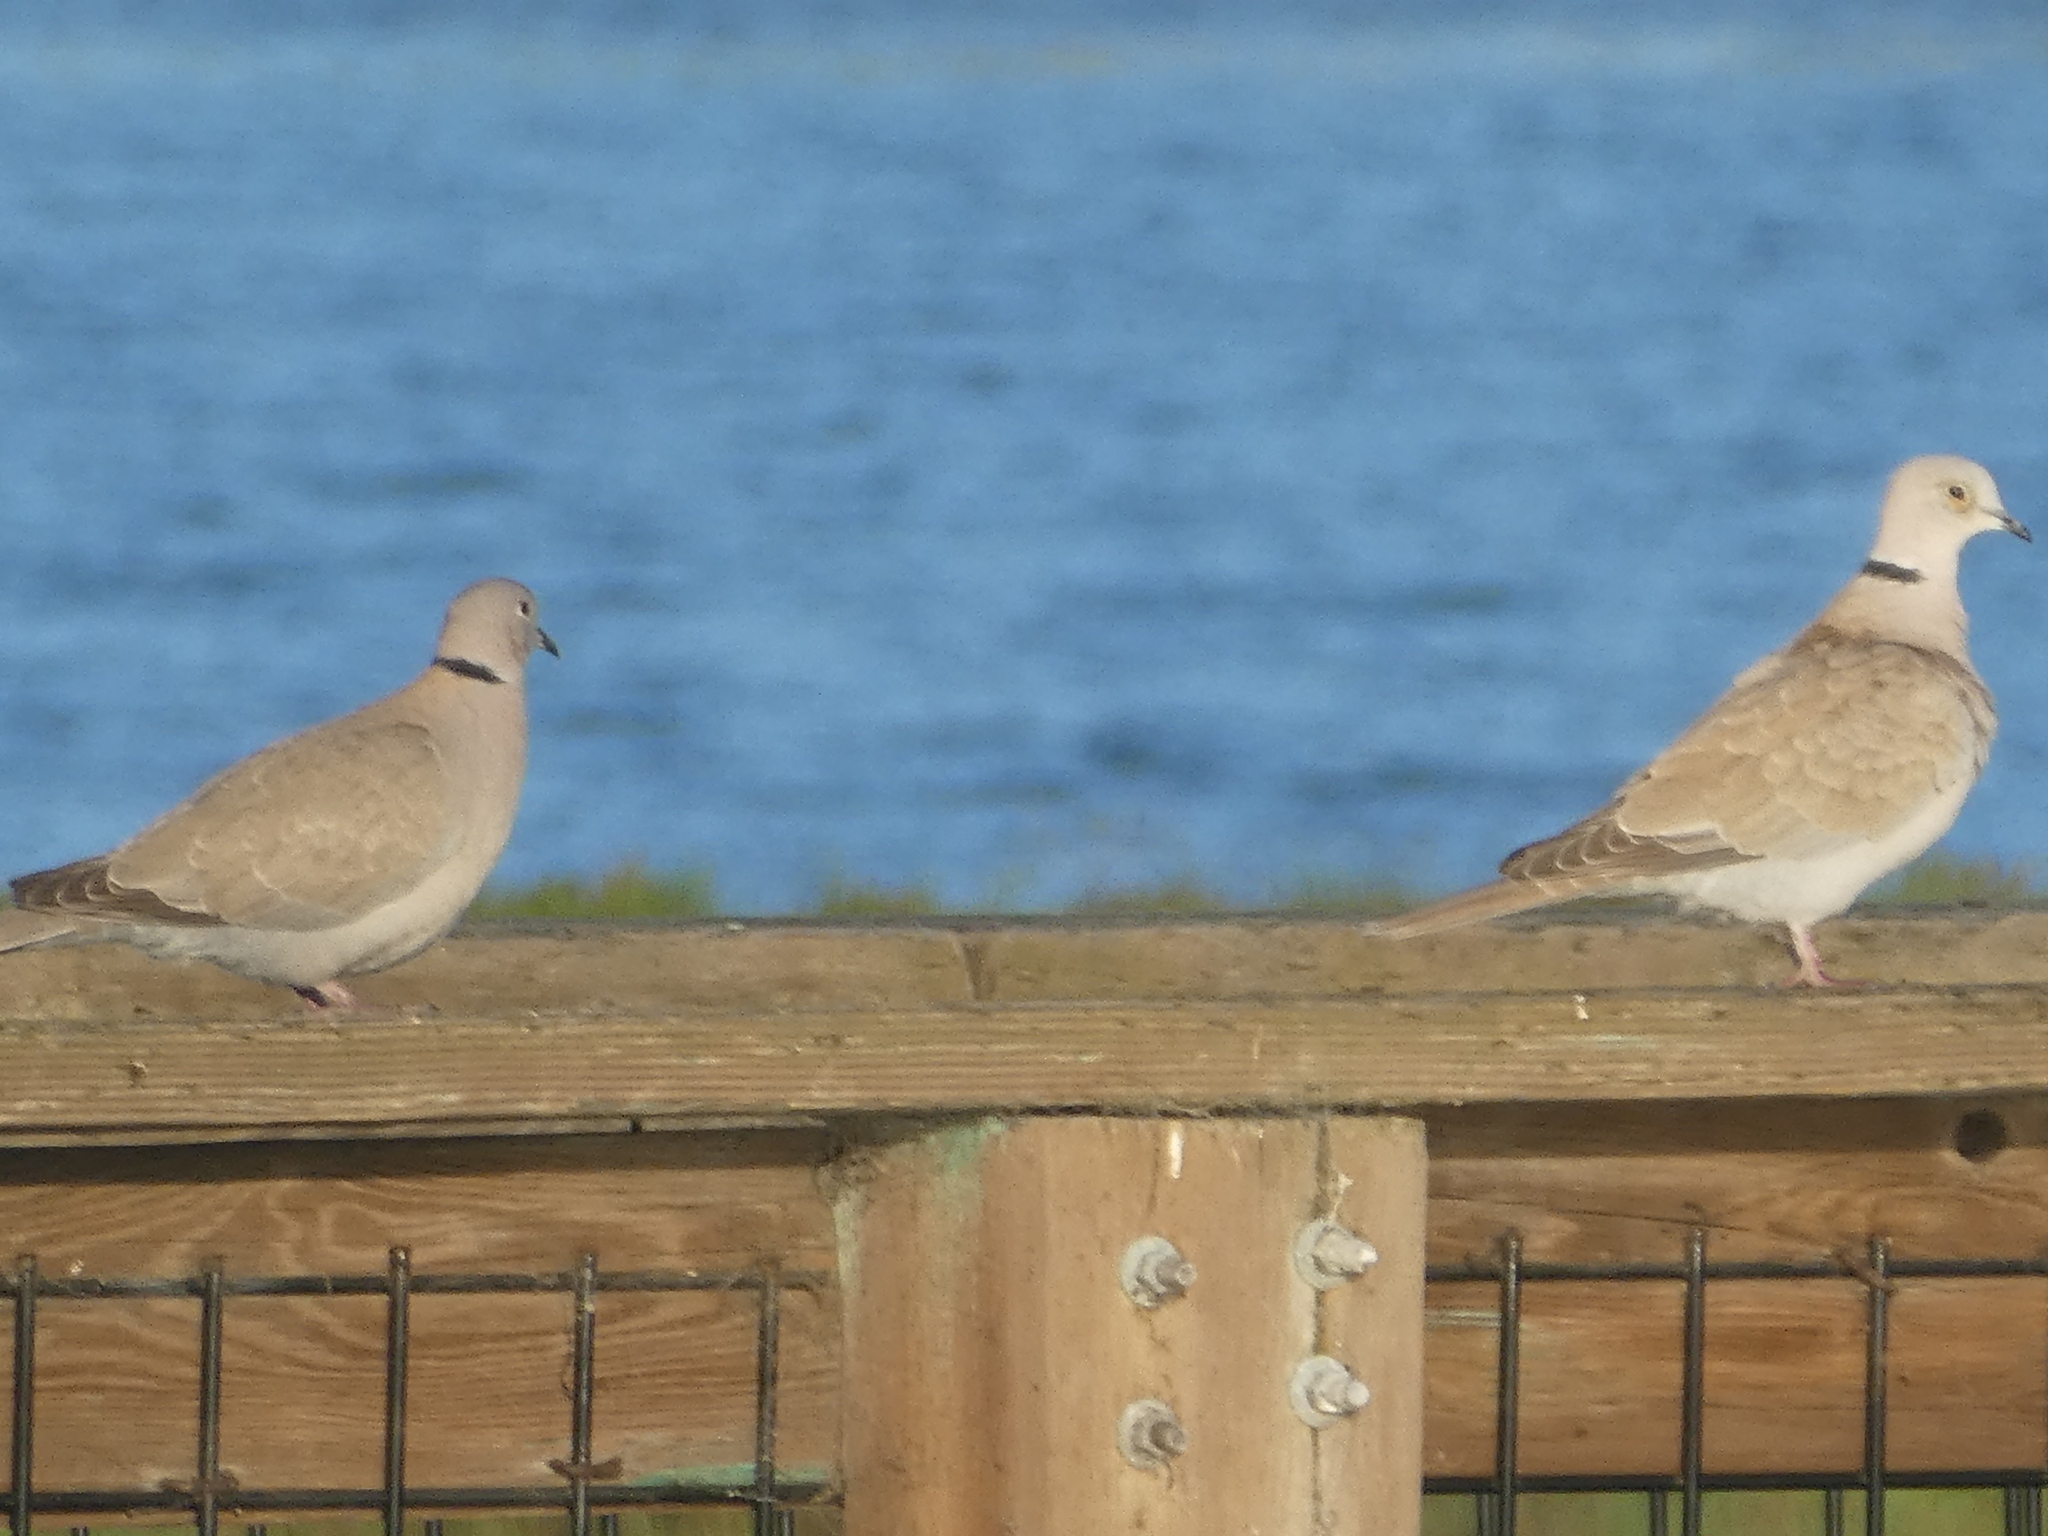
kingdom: Animalia
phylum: Chordata
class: Aves
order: Columbiformes
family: Columbidae
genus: Streptopelia
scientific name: Streptopelia decaocto
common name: Eurasian collared dove
